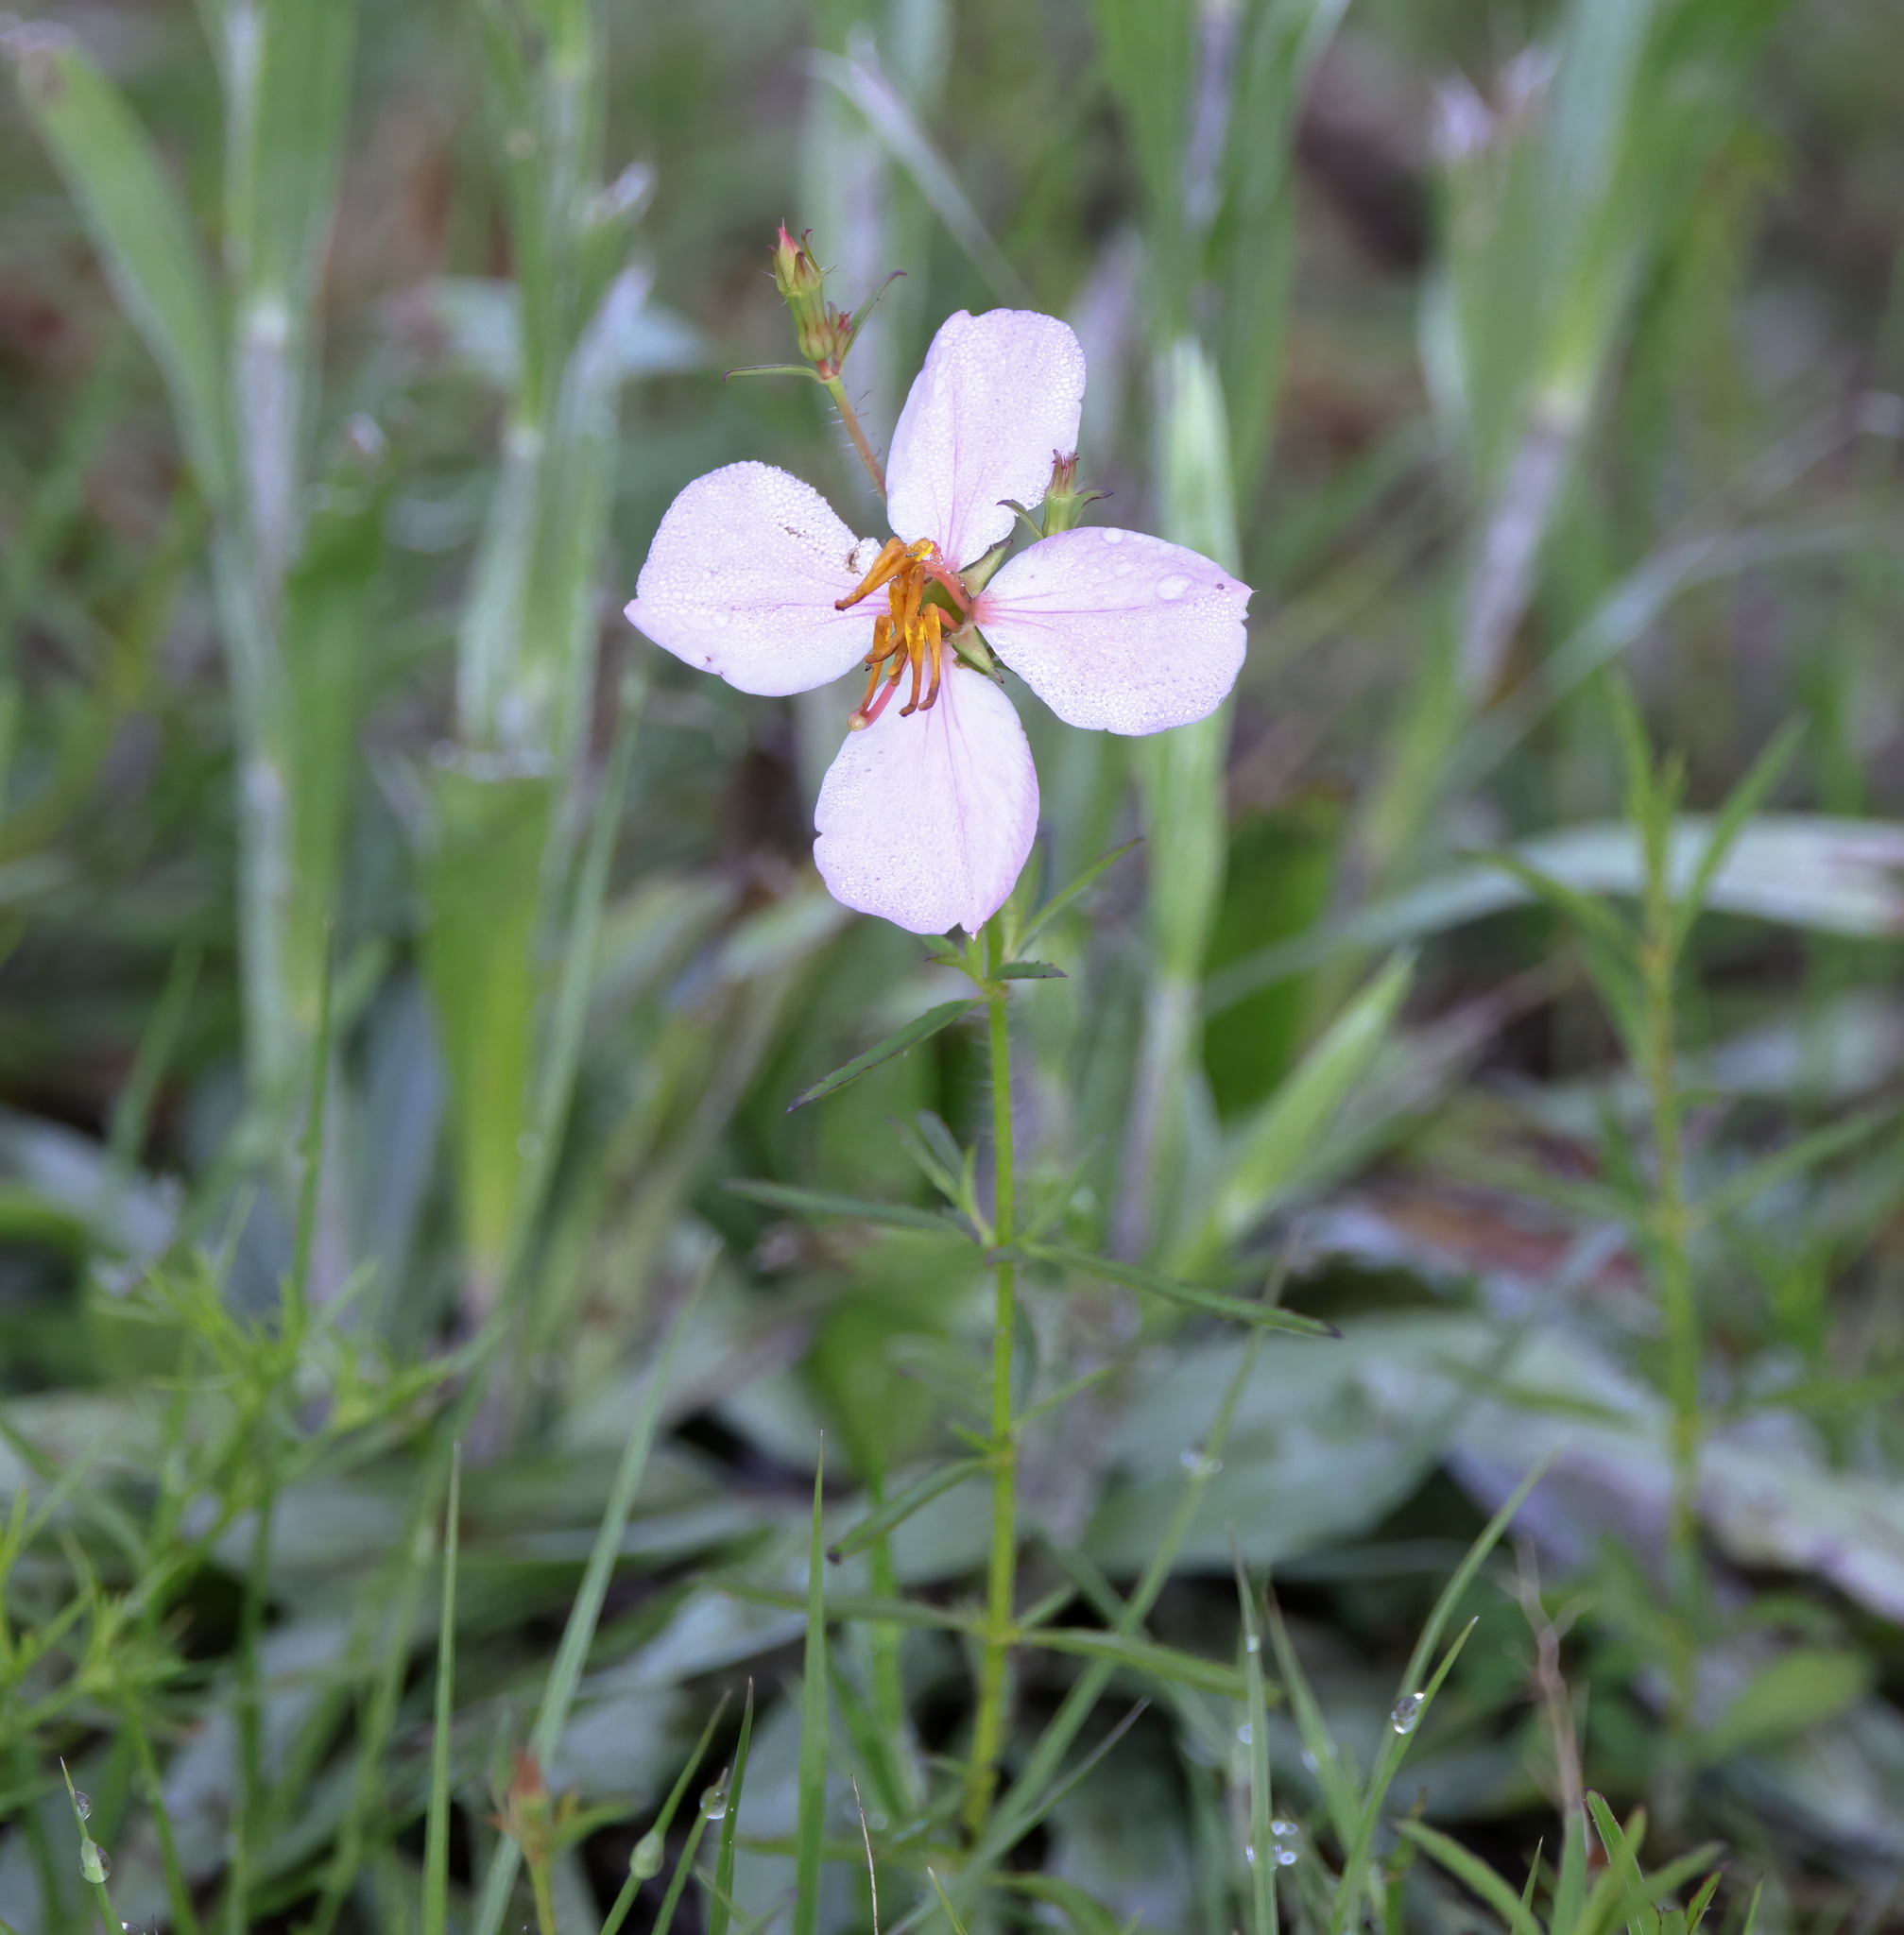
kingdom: Plantae
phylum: Tracheophyta
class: Magnoliopsida
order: Myrtales
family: Melastomataceae
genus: Rhexia
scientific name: Rhexia mariana
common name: Dull meadow-pitcher
